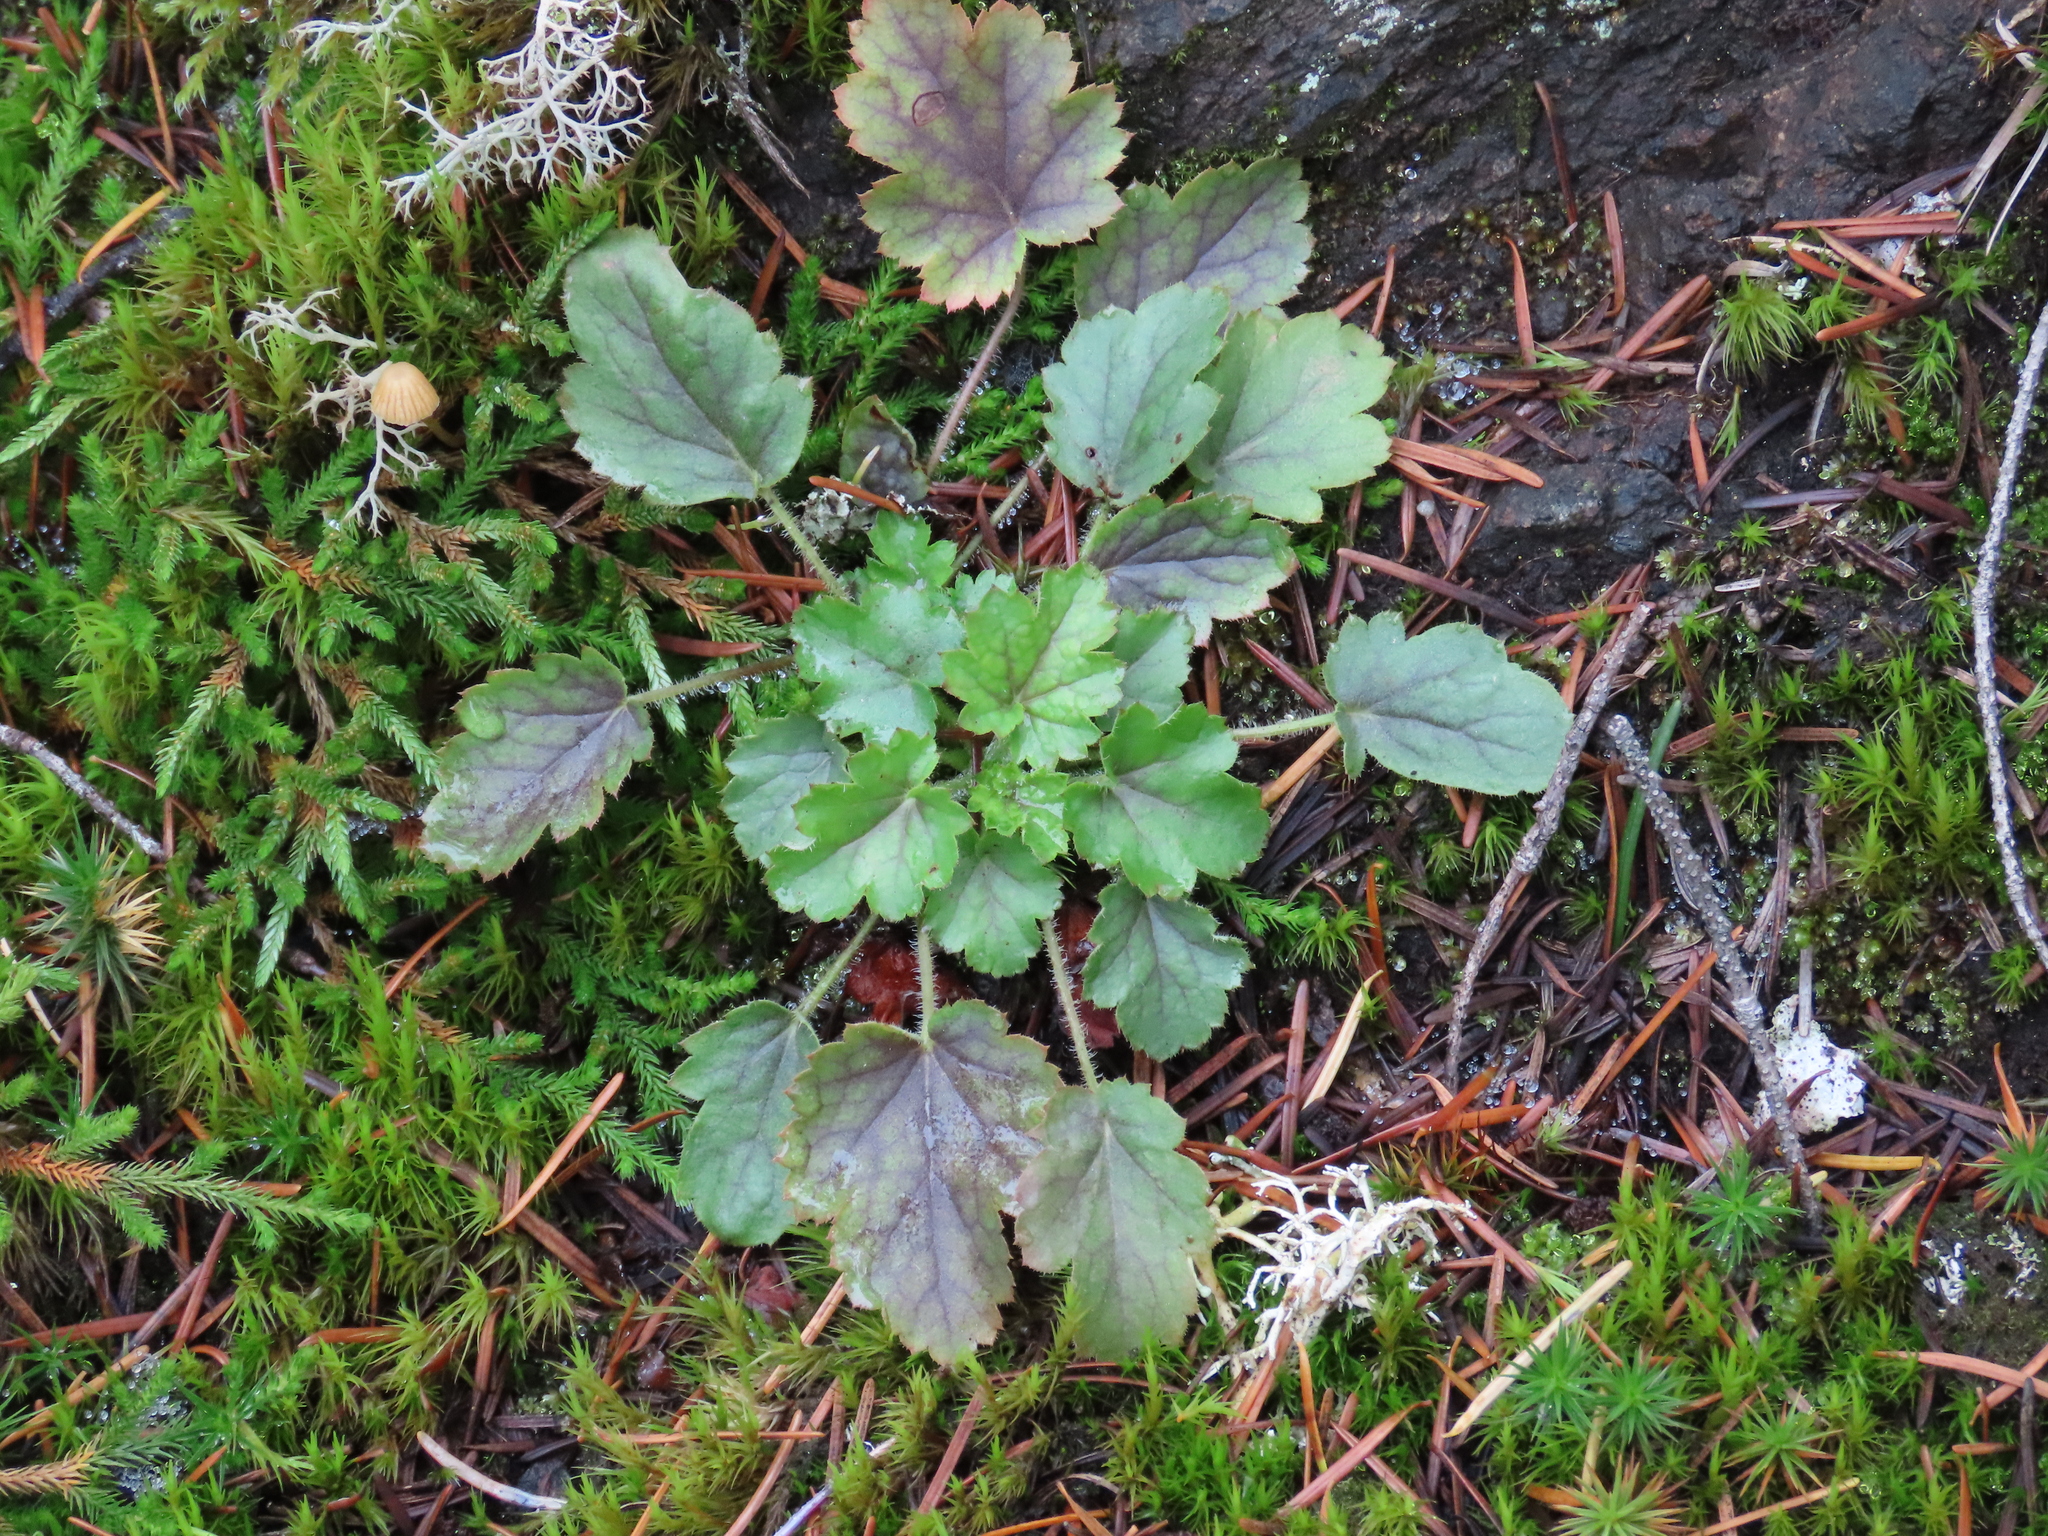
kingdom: Plantae
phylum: Tracheophyta
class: Magnoliopsida
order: Saxifragales
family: Saxifragaceae
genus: Heuchera
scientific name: Heuchera micrantha
